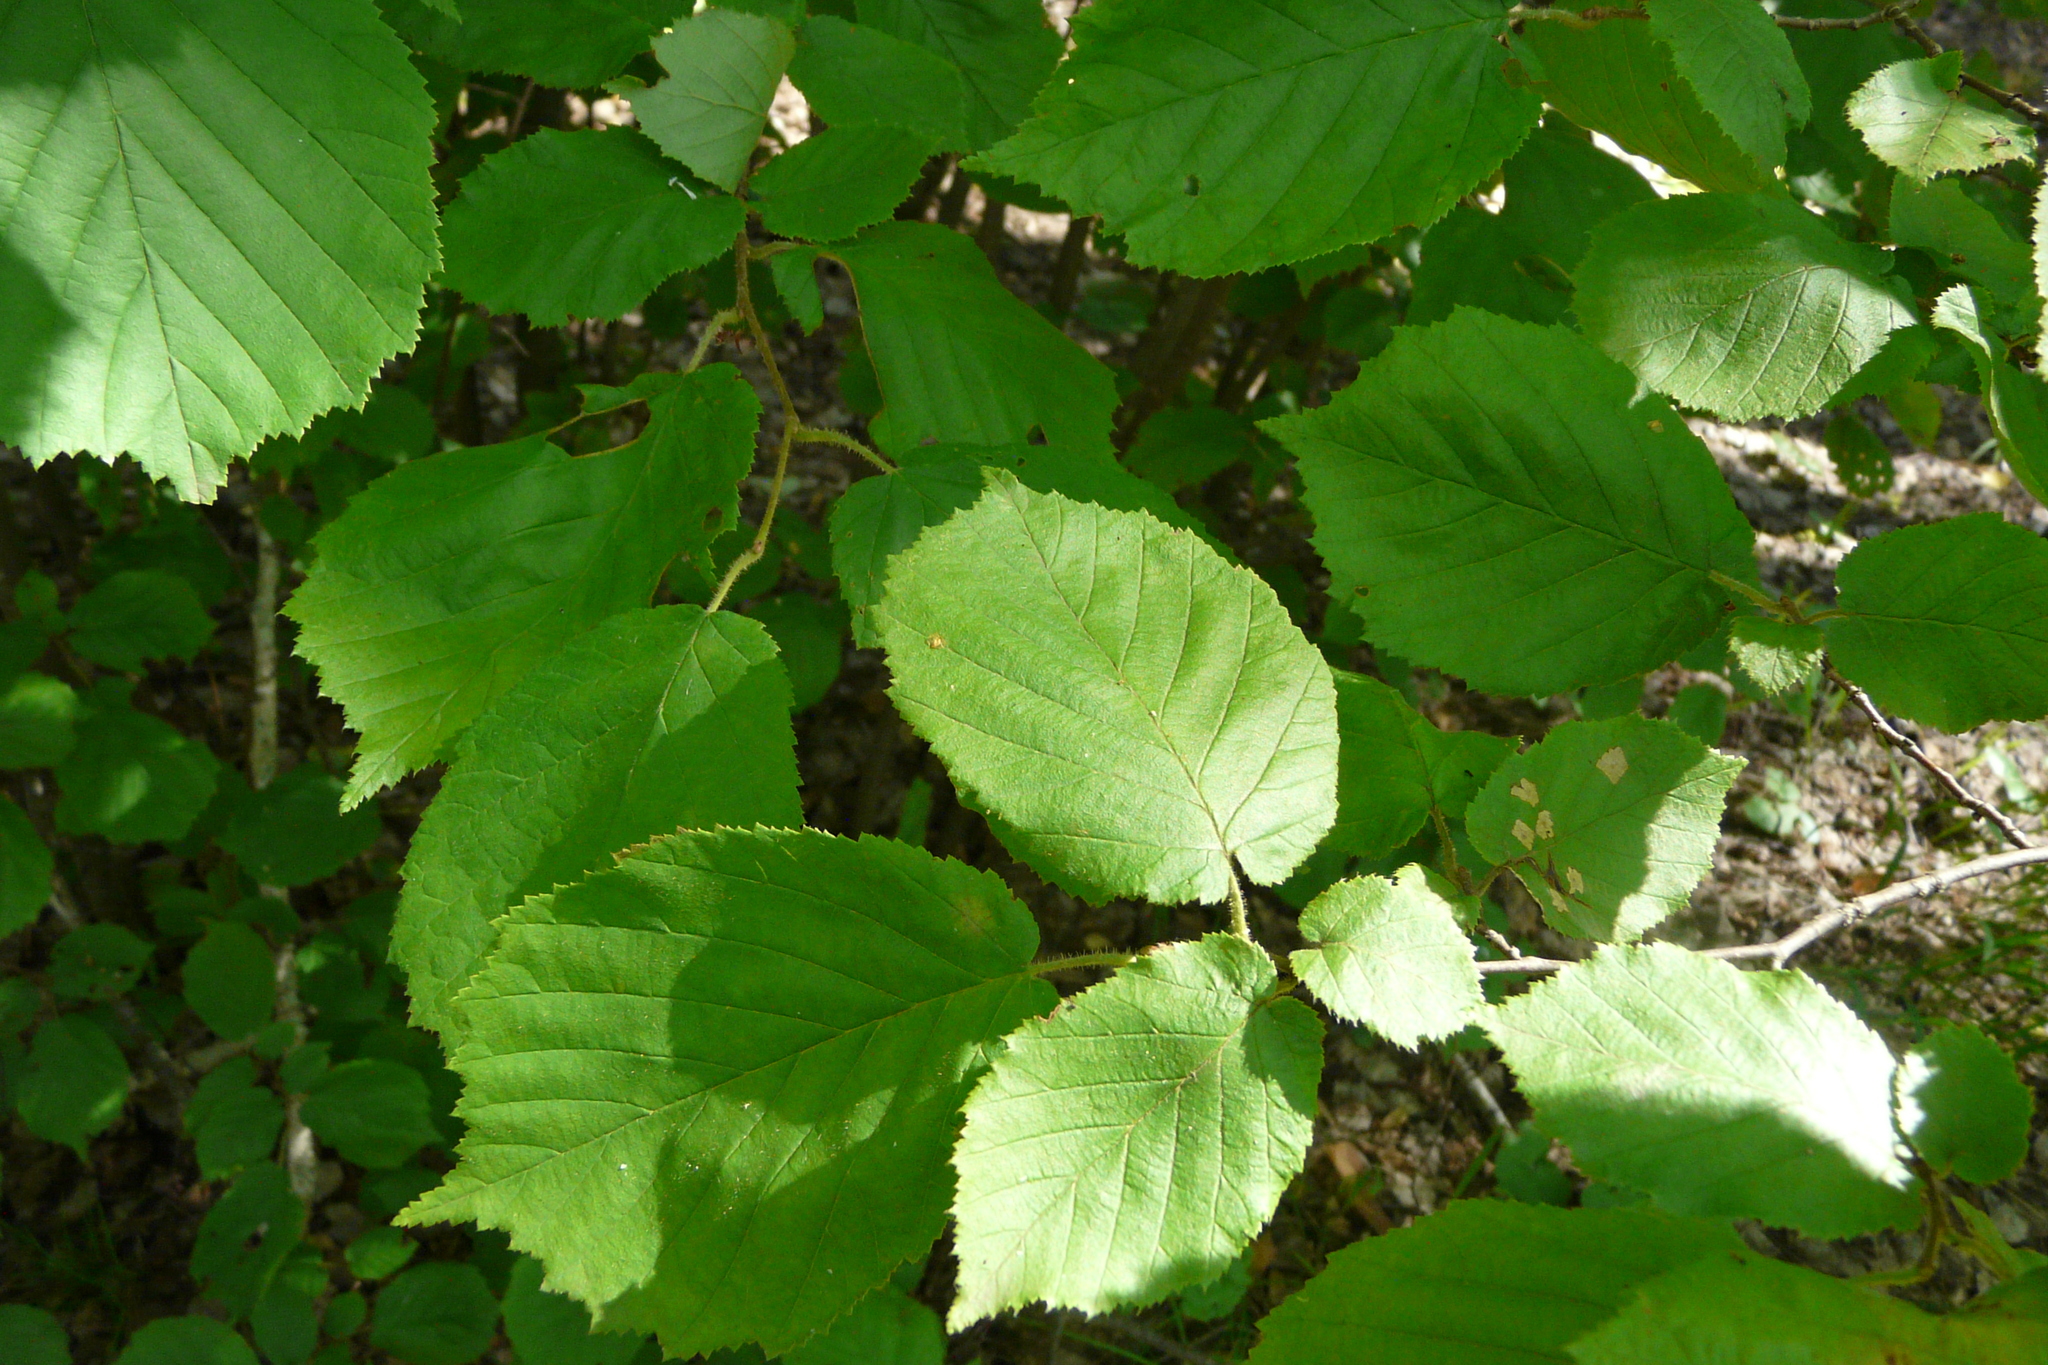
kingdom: Plantae
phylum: Tracheophyta
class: Magnoliopsida
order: Fagales
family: Betulaceae
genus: Corylus
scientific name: Corylus avellana
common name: European hazel
